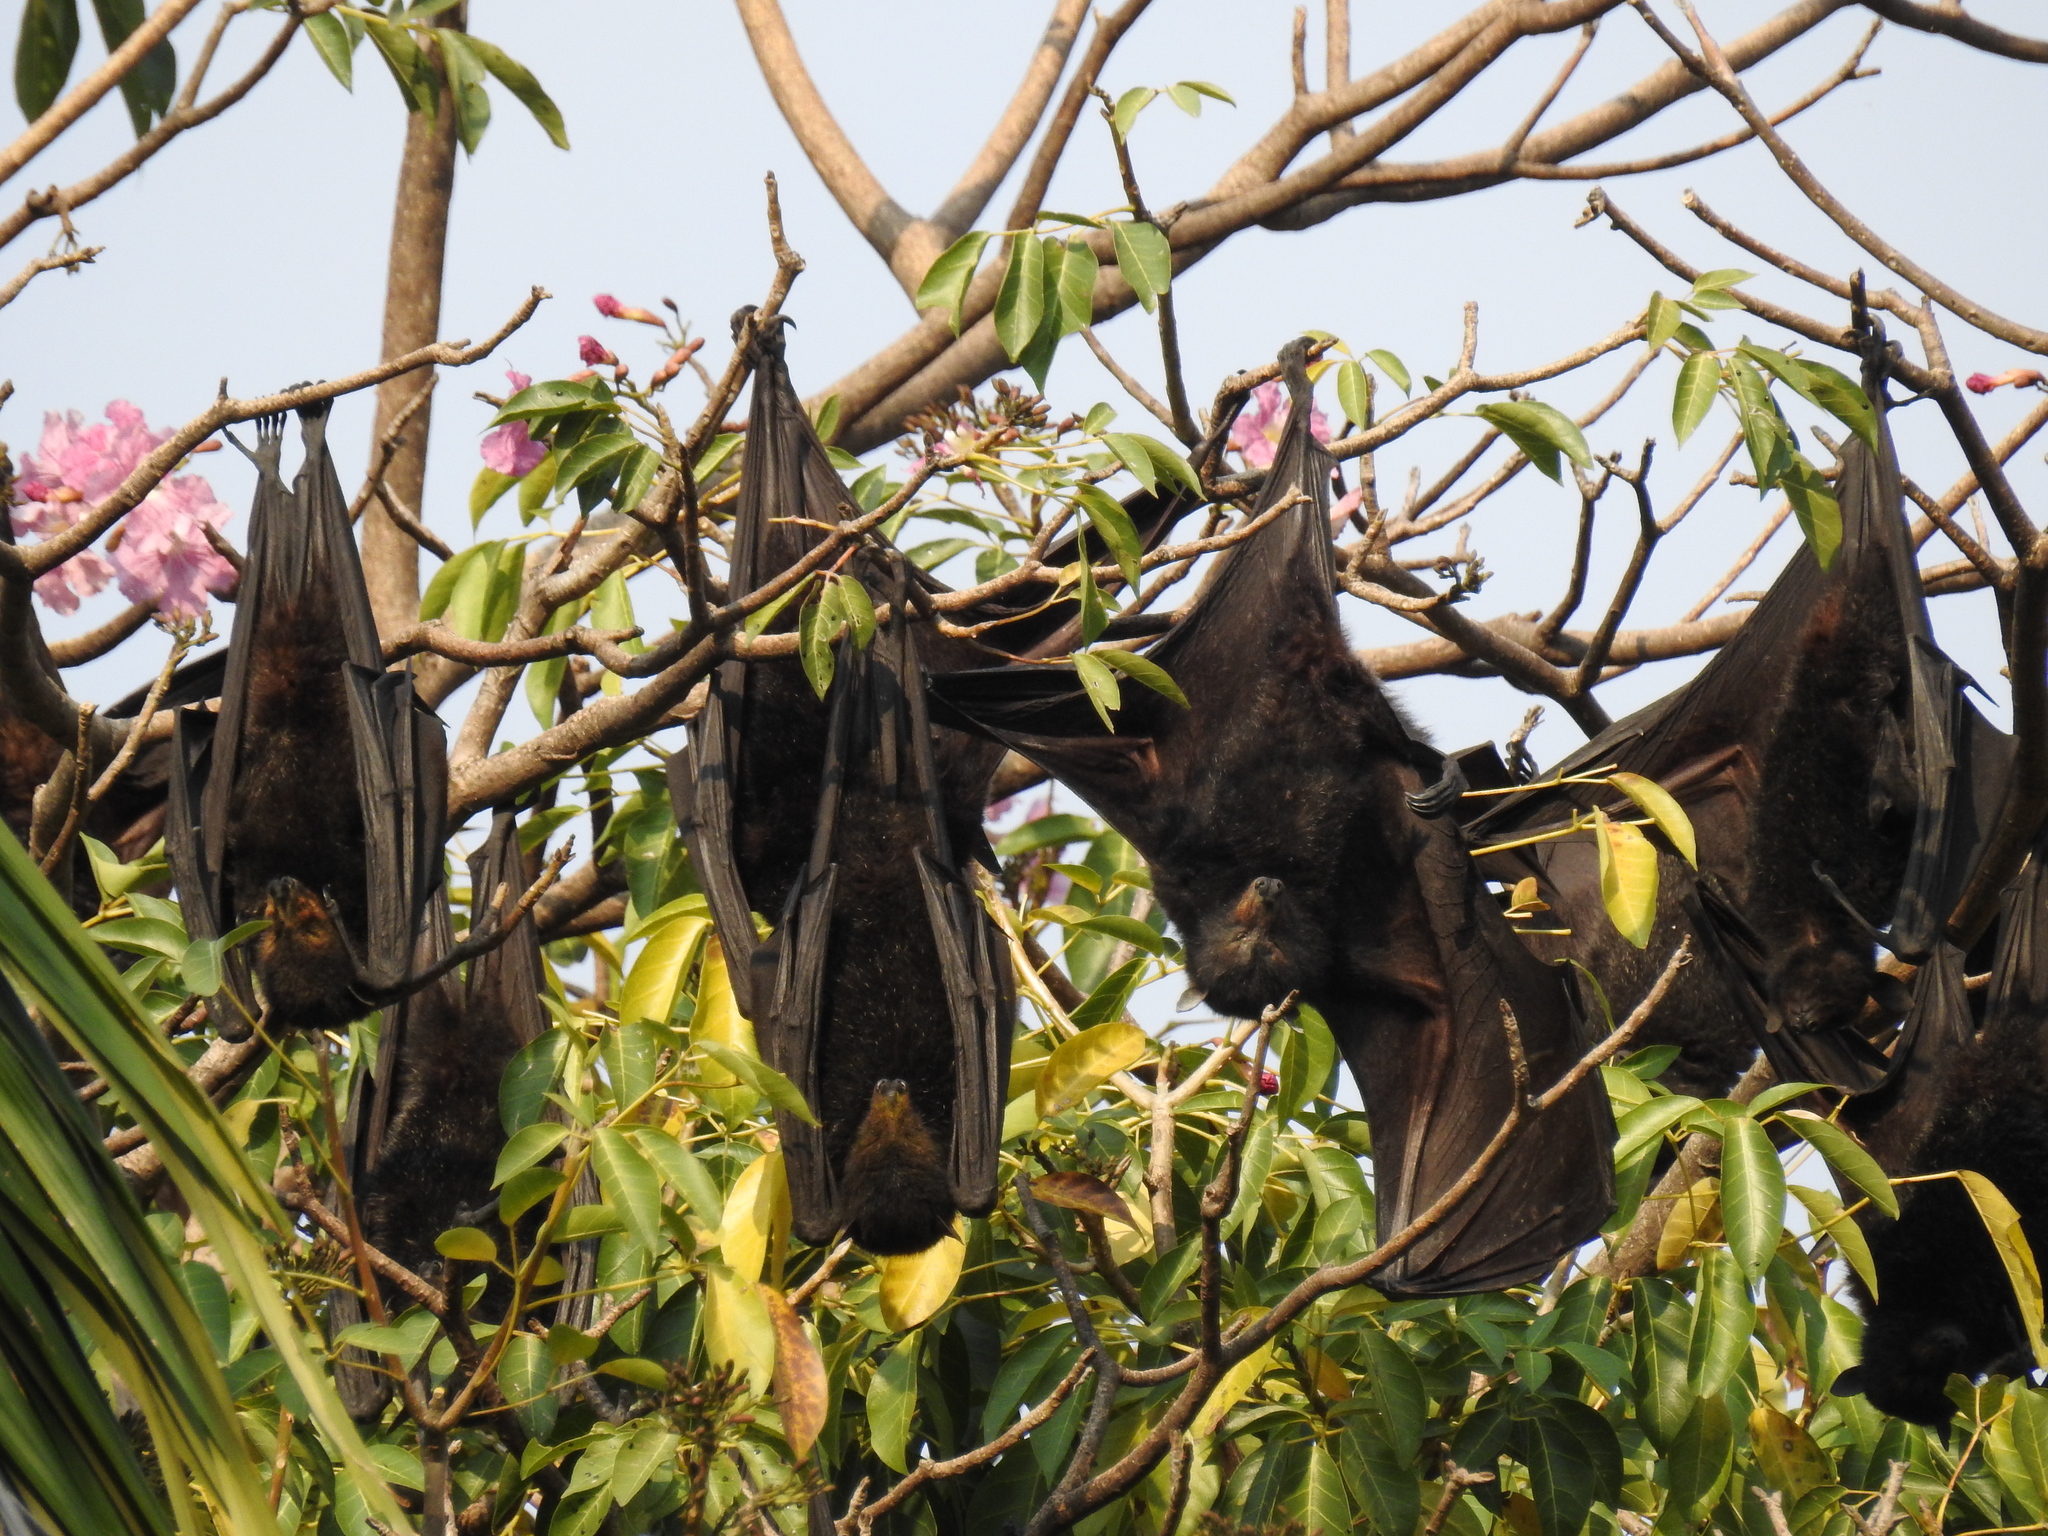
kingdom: Animalia
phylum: Chordata
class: Mammalia
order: Chiroptera
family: Pteropodidae
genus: Pteropus
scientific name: Pteropus alecto
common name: Black flying fox
